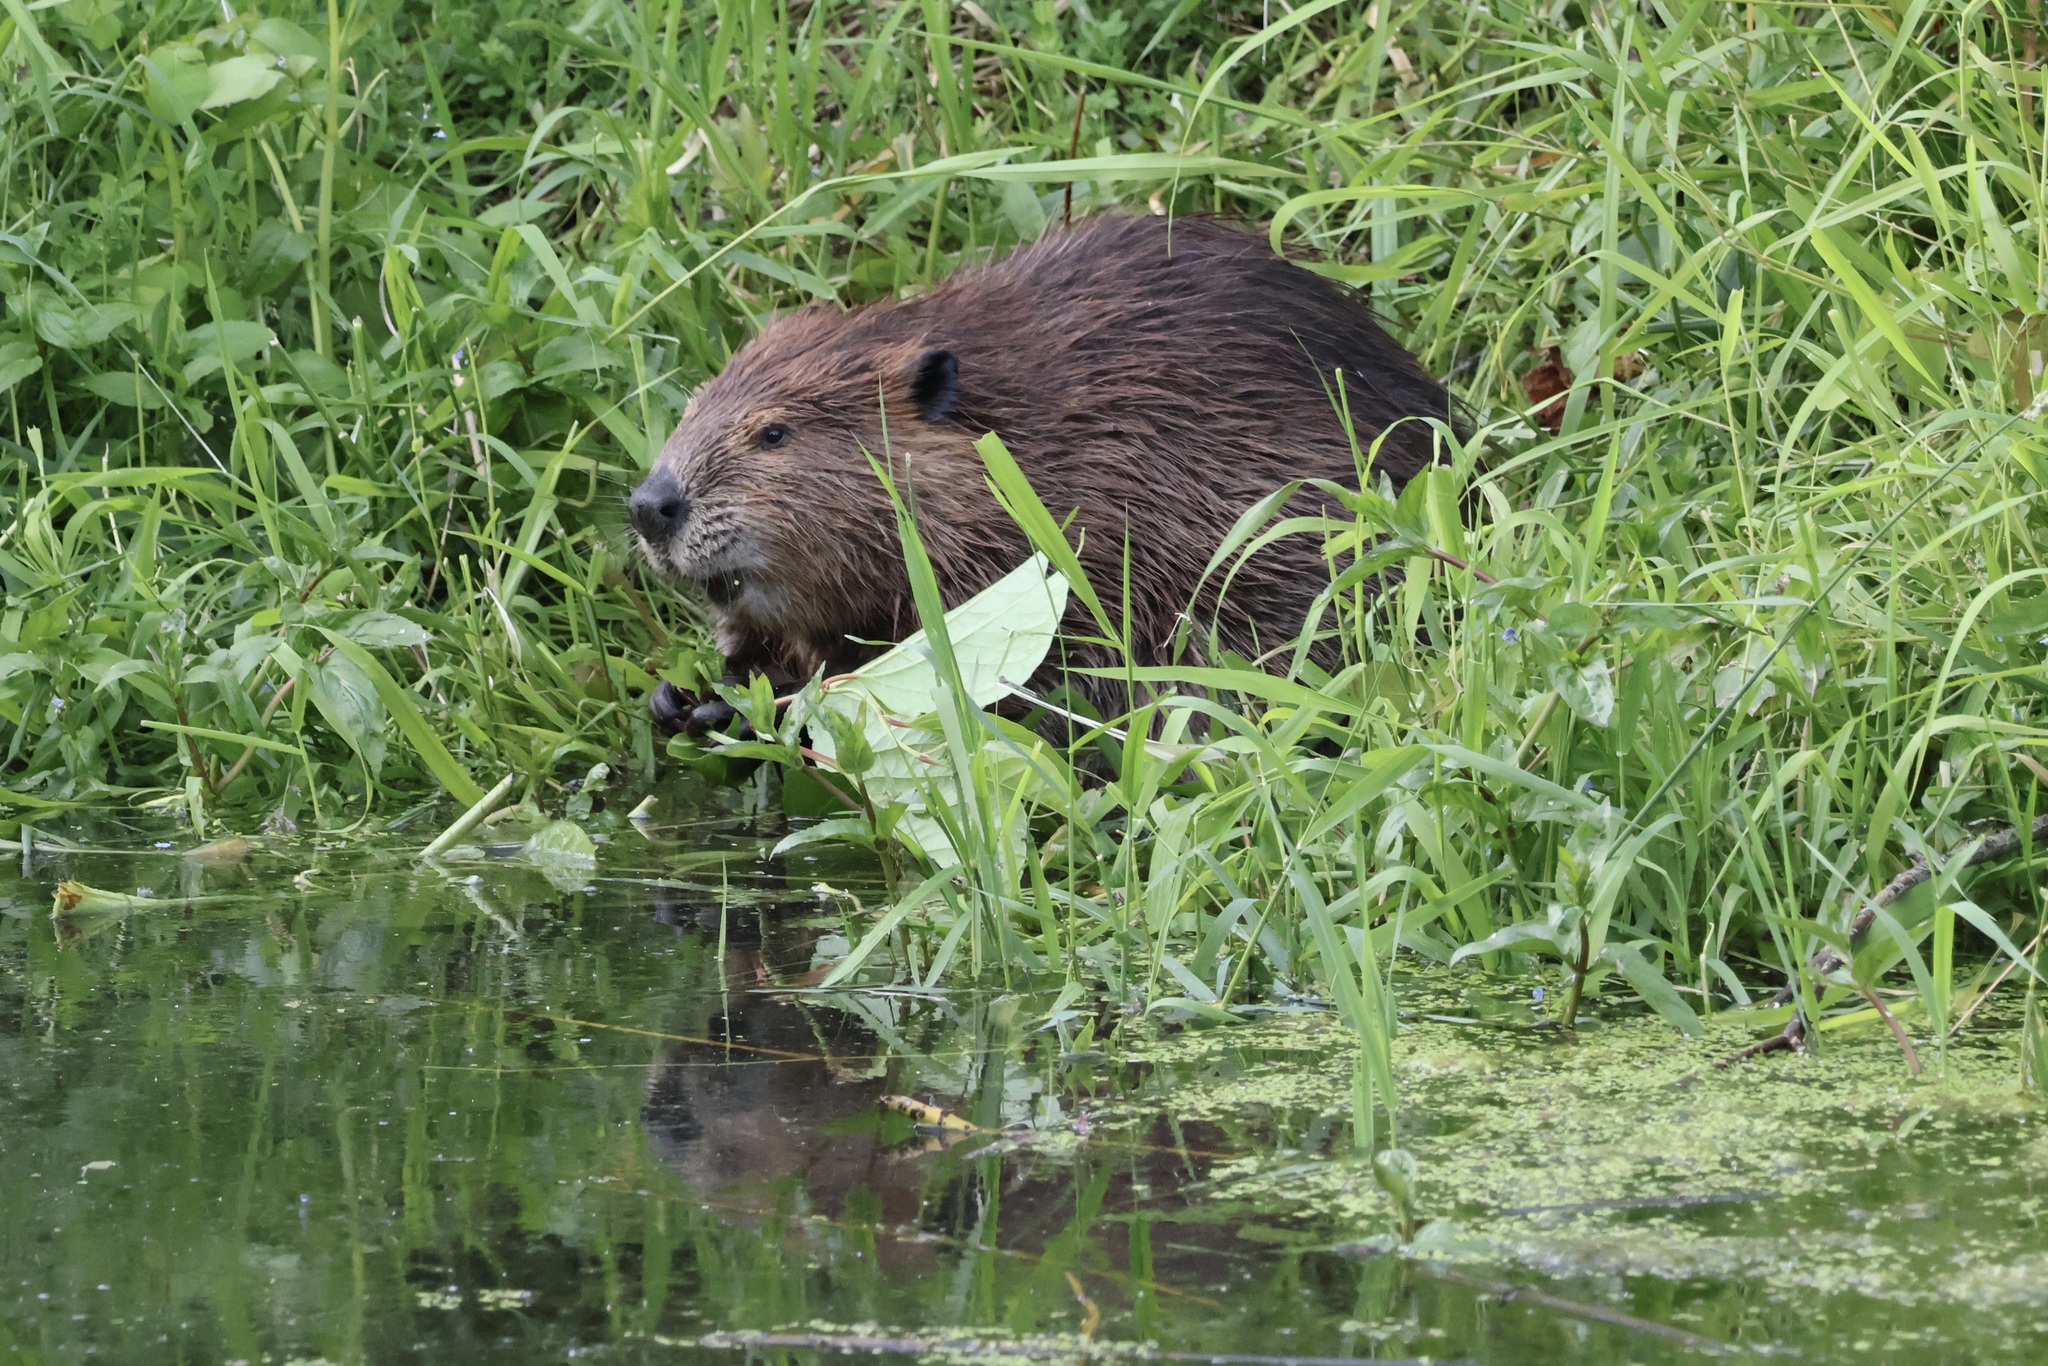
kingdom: Animalia
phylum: Chordata
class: Mammalia
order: Rodentia
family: Castoridae
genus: Castor
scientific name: Castor canadensis
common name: American beaver
